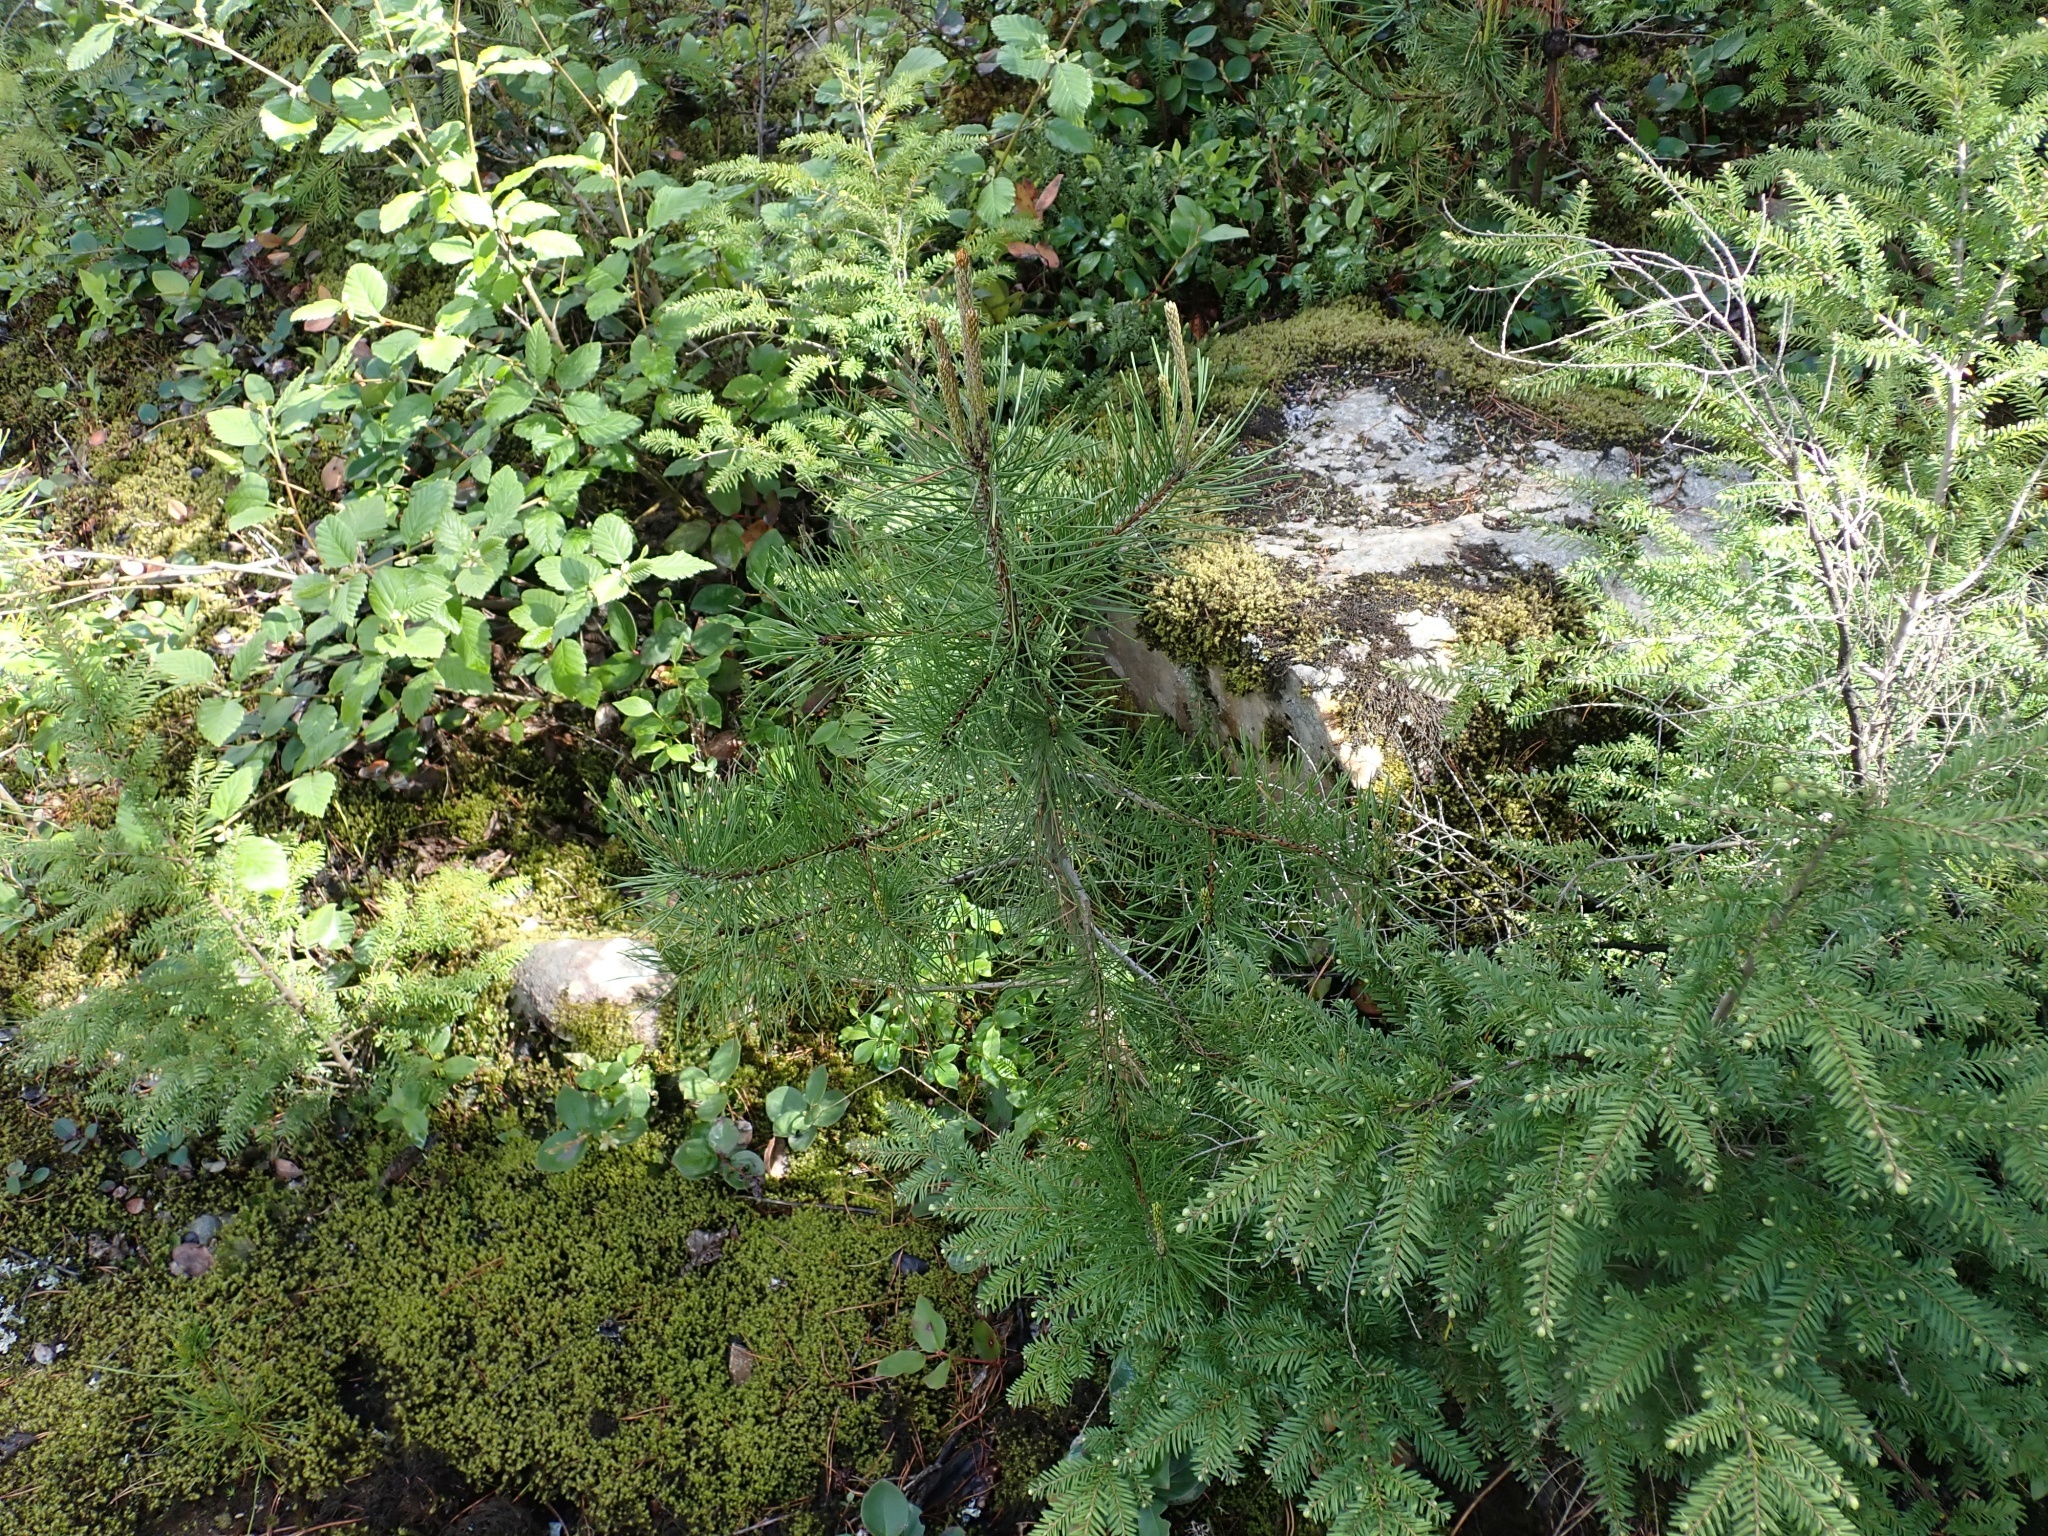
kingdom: Plantae
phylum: Tracheophyta
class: Pinopsida
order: Pinales
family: Pinaceae
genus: Pinus
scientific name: Pinus contorta
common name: Lodgepole pine
